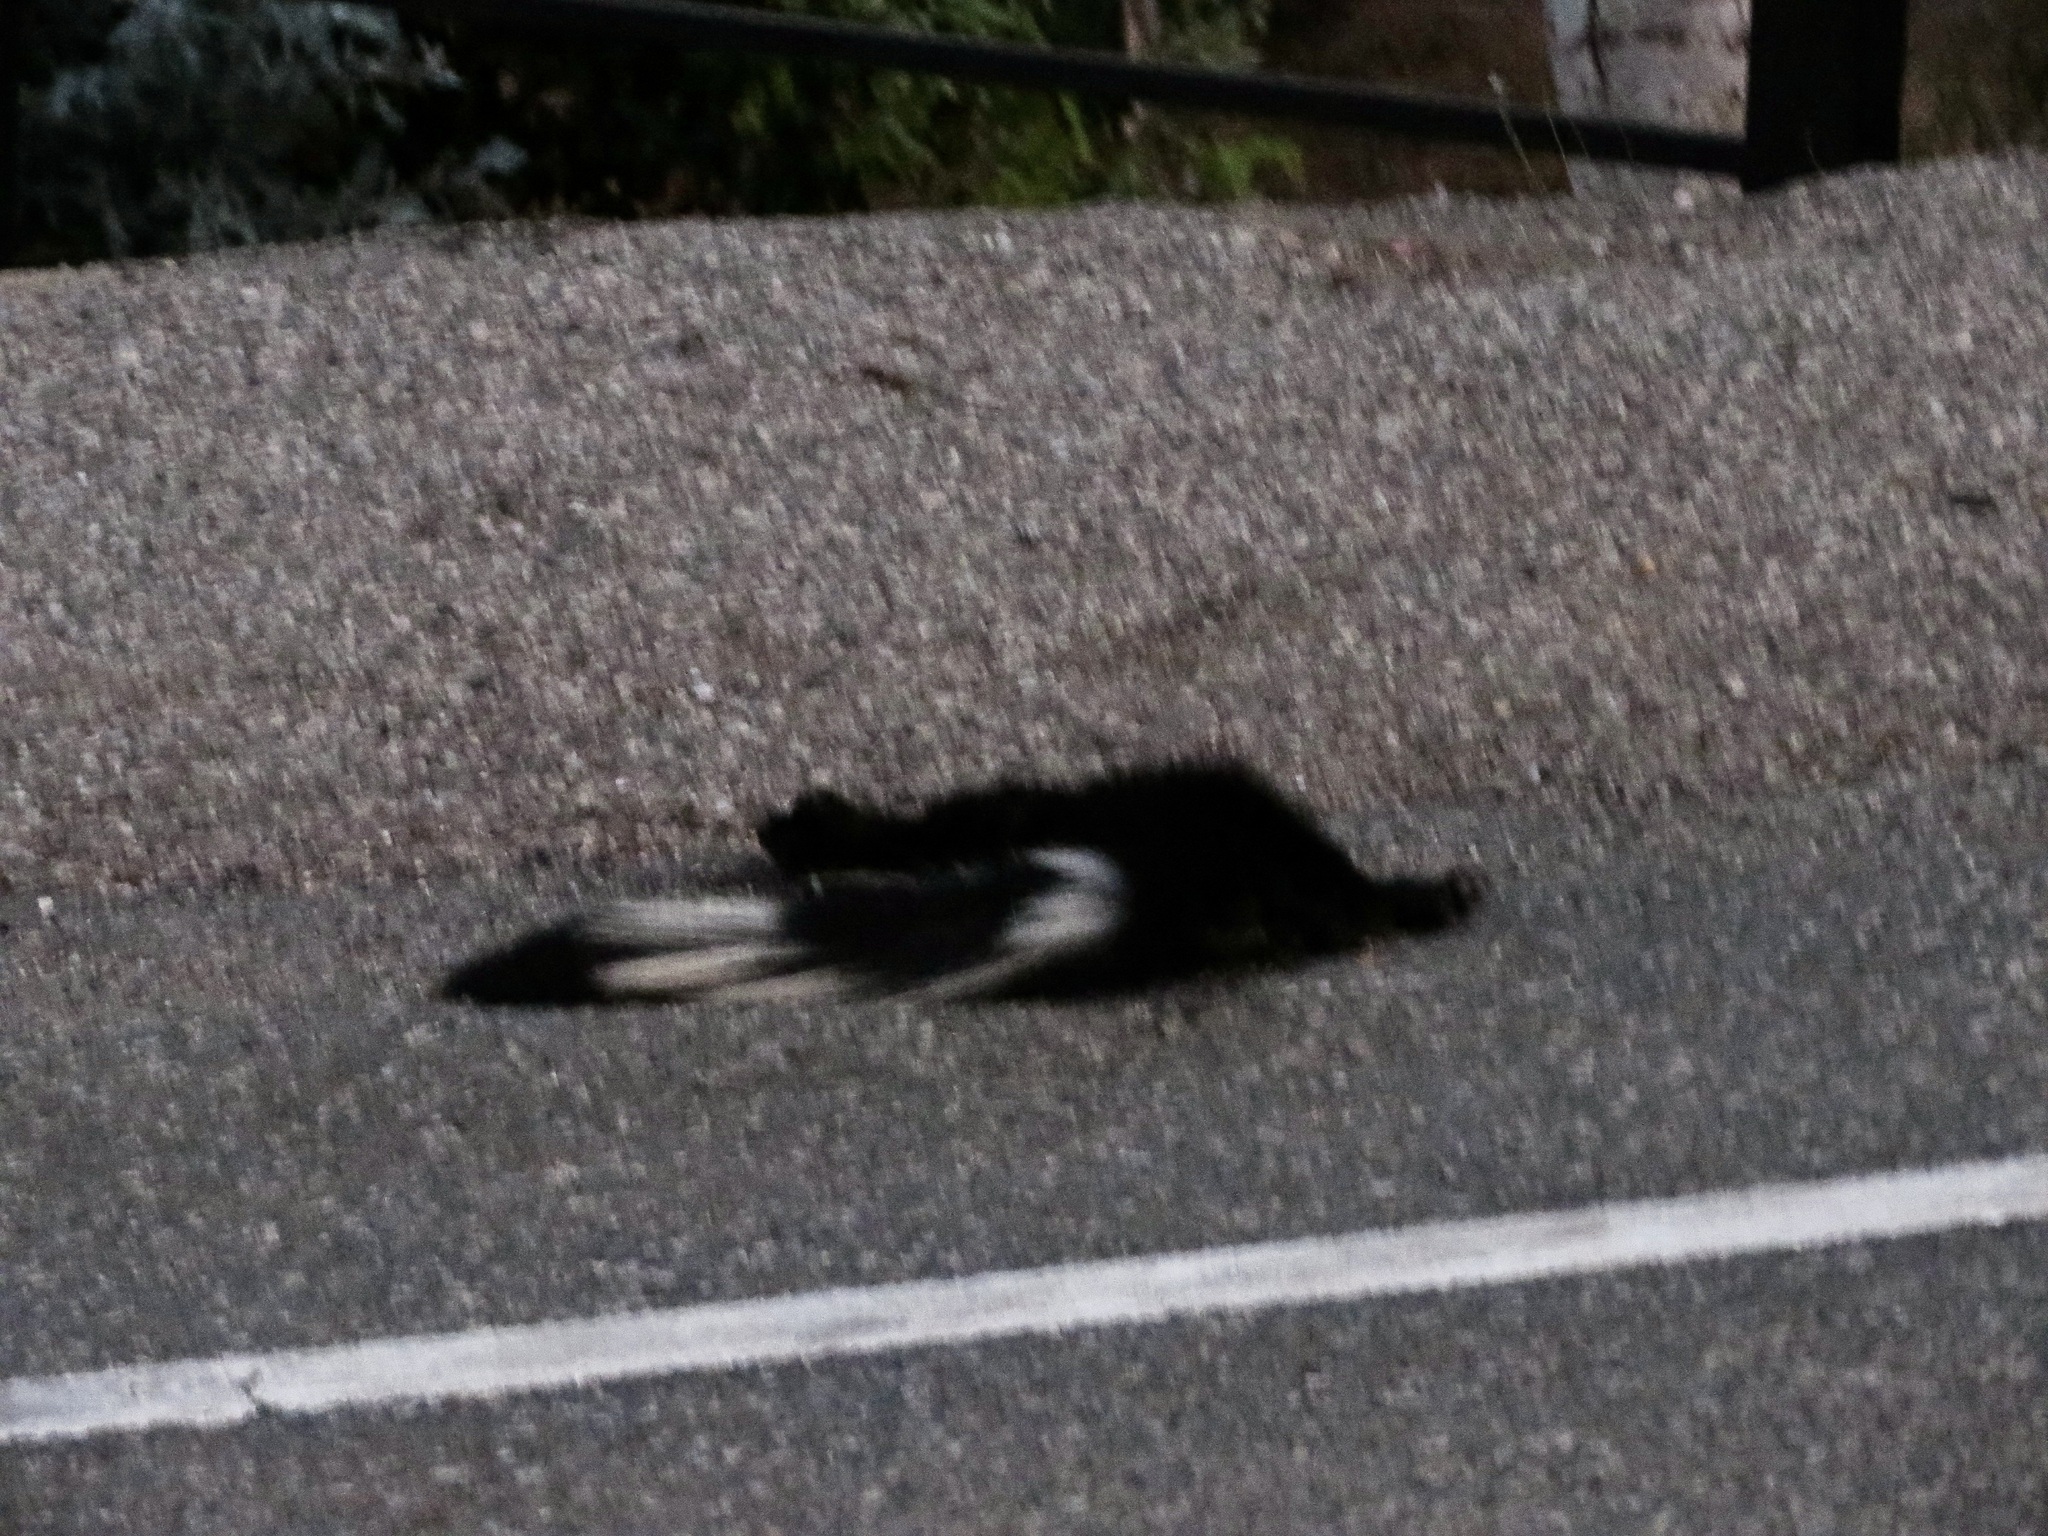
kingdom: Animalia
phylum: Chordata
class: Mammalia
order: Carnivora
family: Mephitidae
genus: Mephitis
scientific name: Mephitis mephitis
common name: Striped skunk
